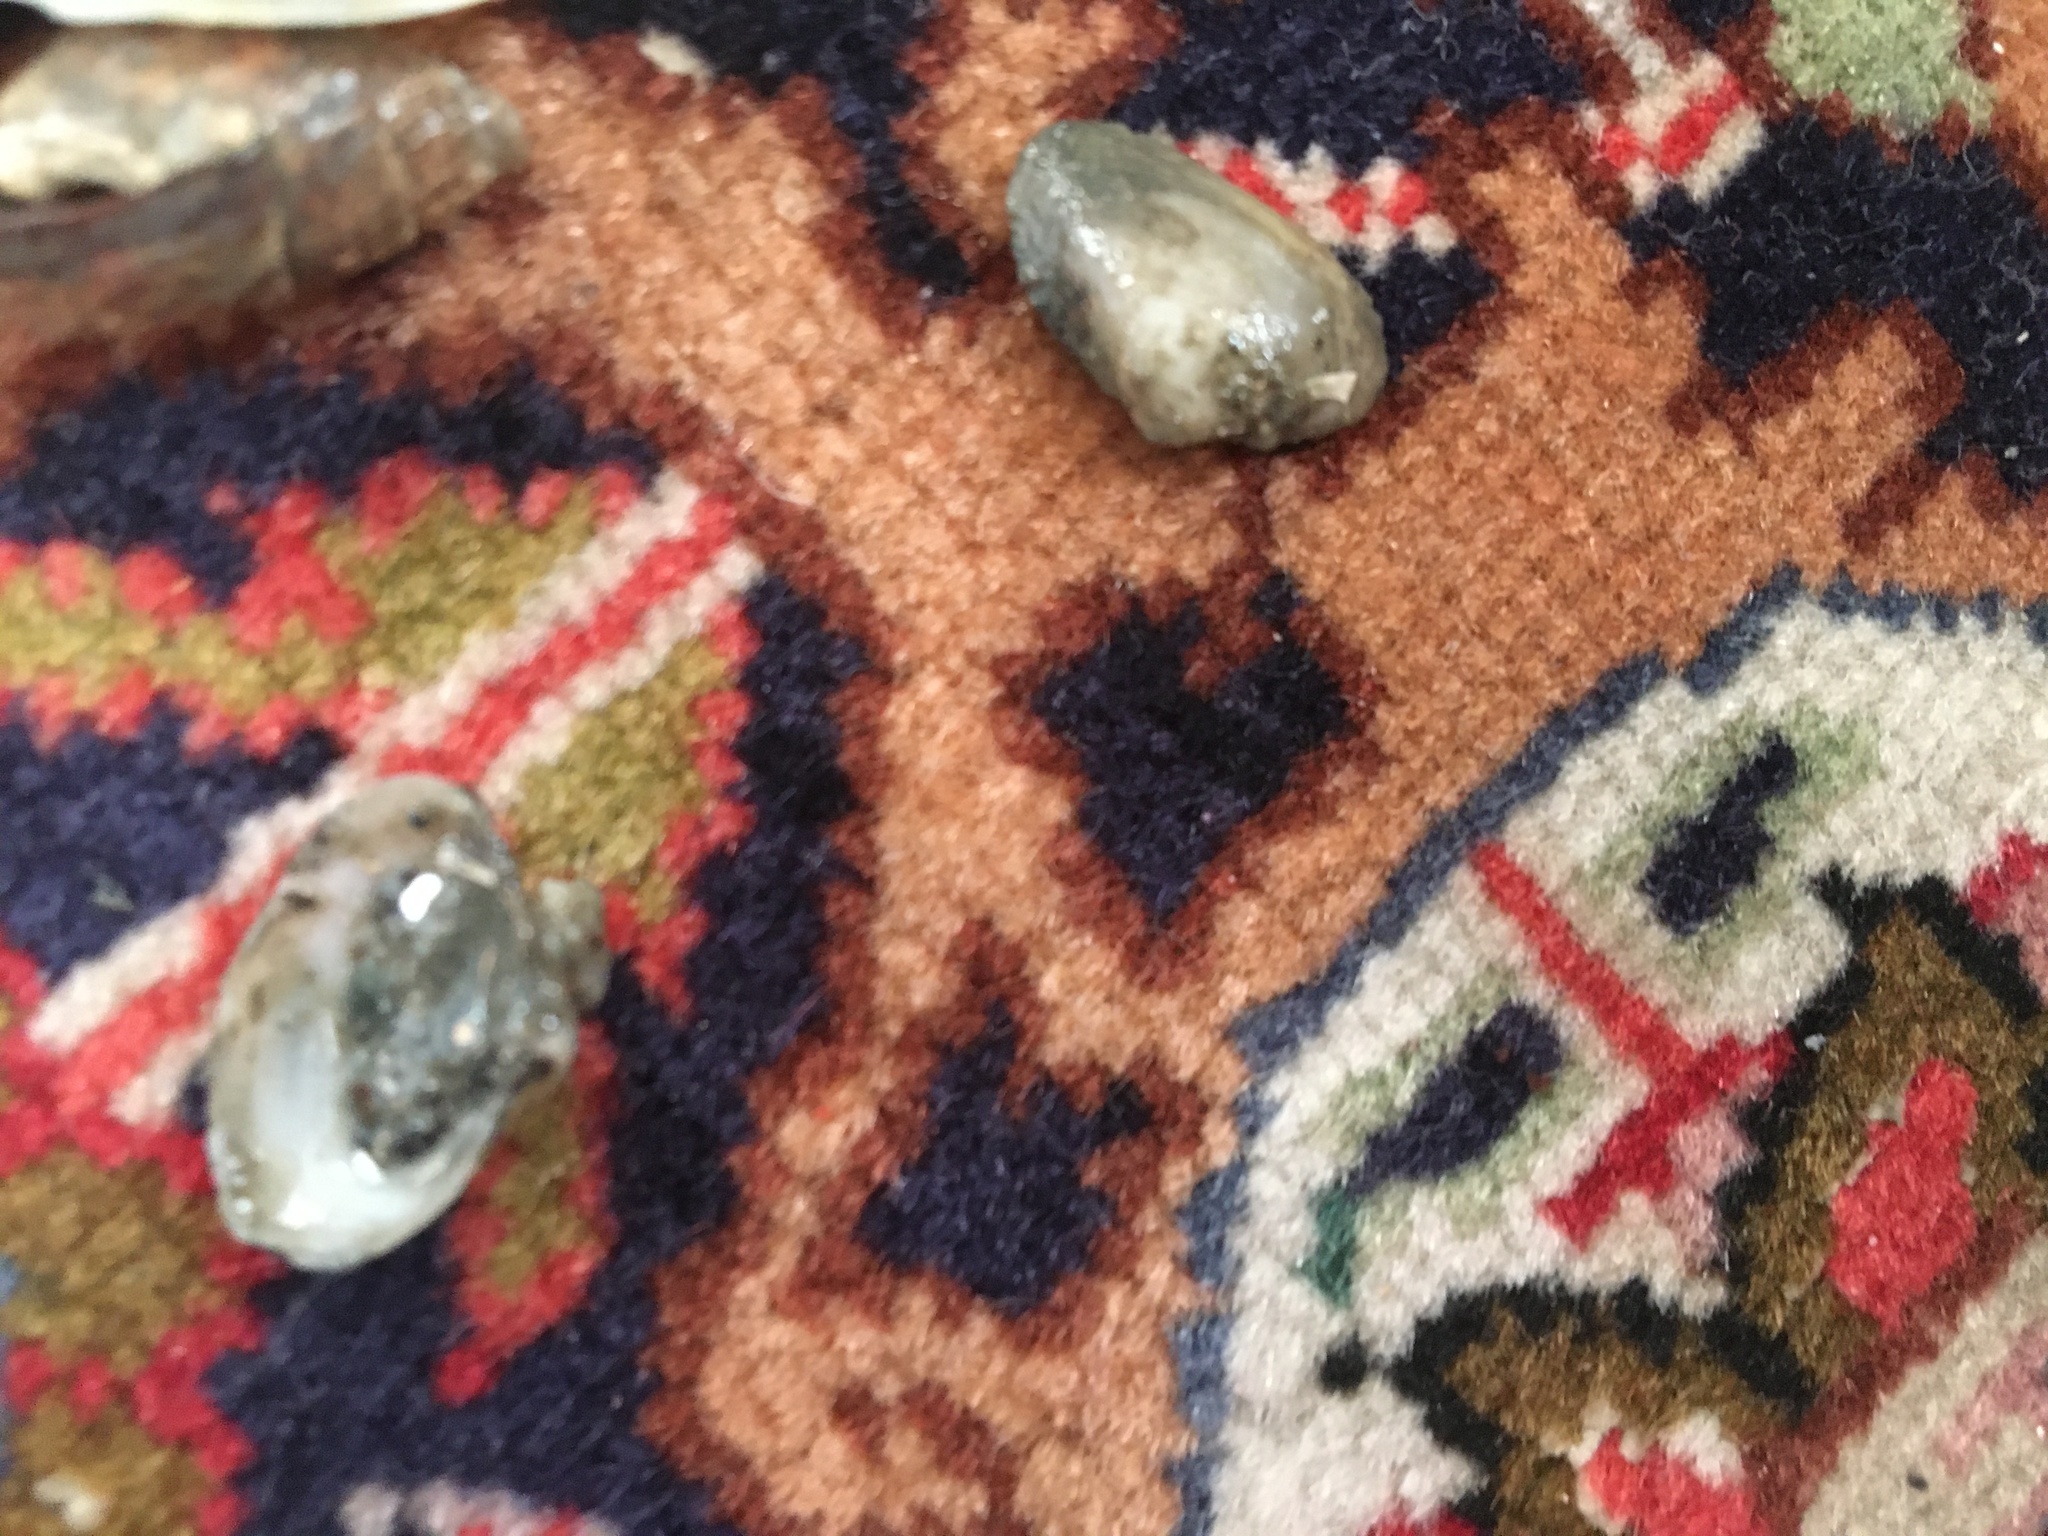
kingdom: Animalia
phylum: Mollusca
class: Bivalvia
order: Myida
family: Corbulidae
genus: Potamocorbula
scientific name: Potamocorbula amurensis
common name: Brackish-water corbula
